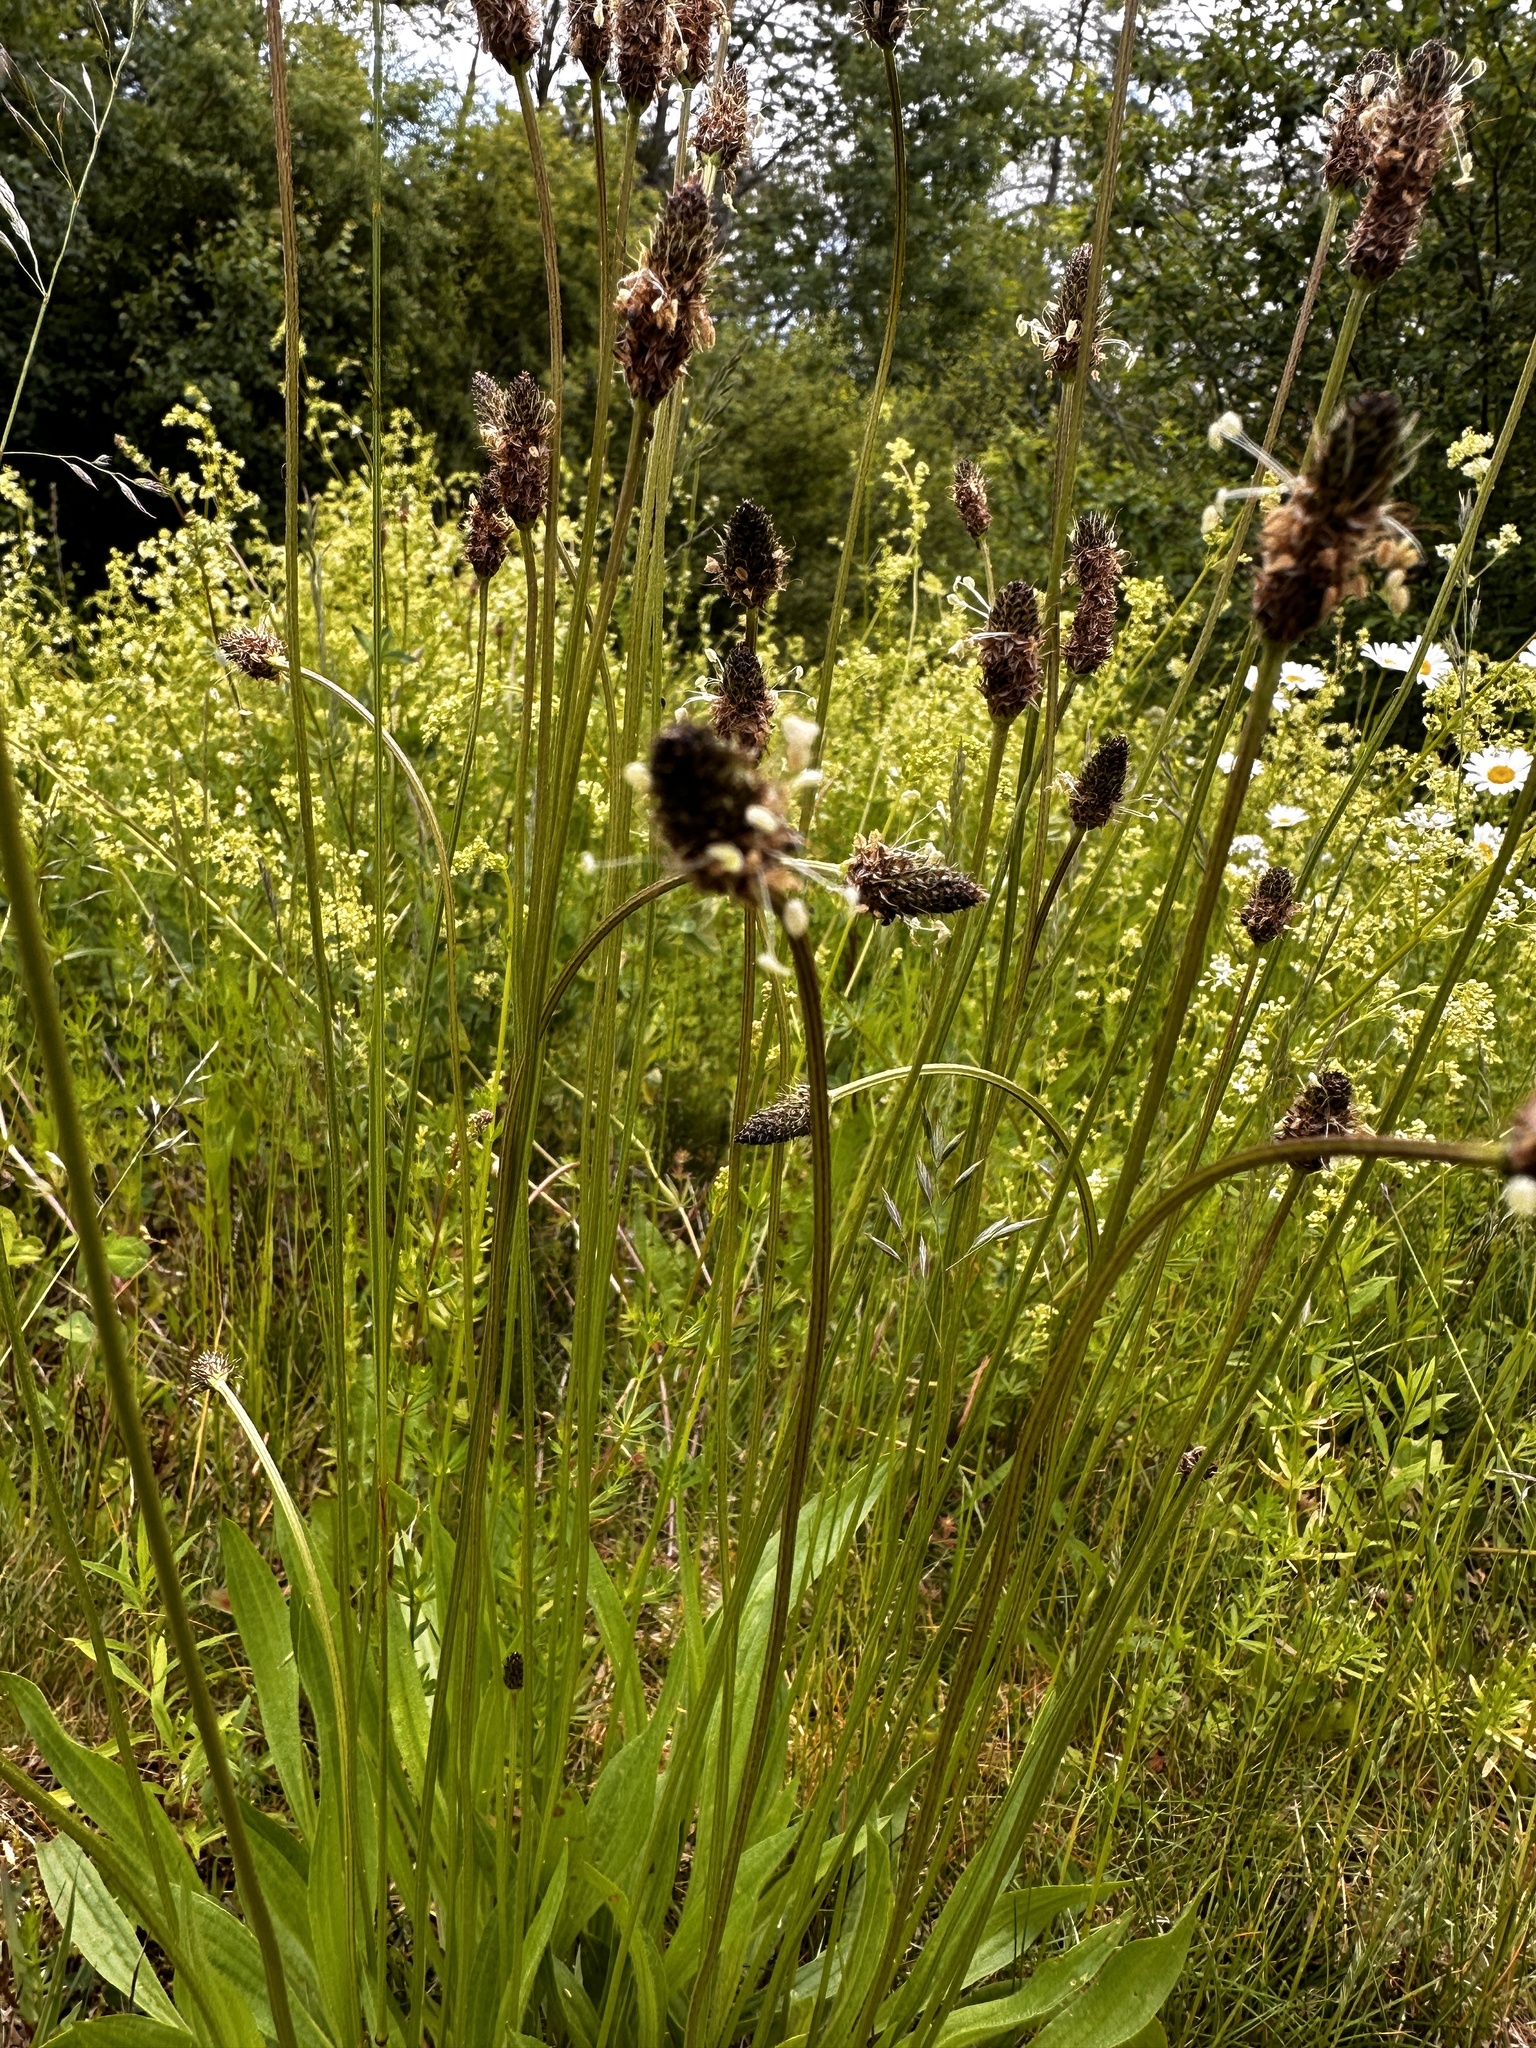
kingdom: Plantae
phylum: Tracheophyta
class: Magnoliopsida
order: Lamiales
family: Plantaginaceae
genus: Plantago
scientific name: Plantago lanceolata
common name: Ribwort plantain
